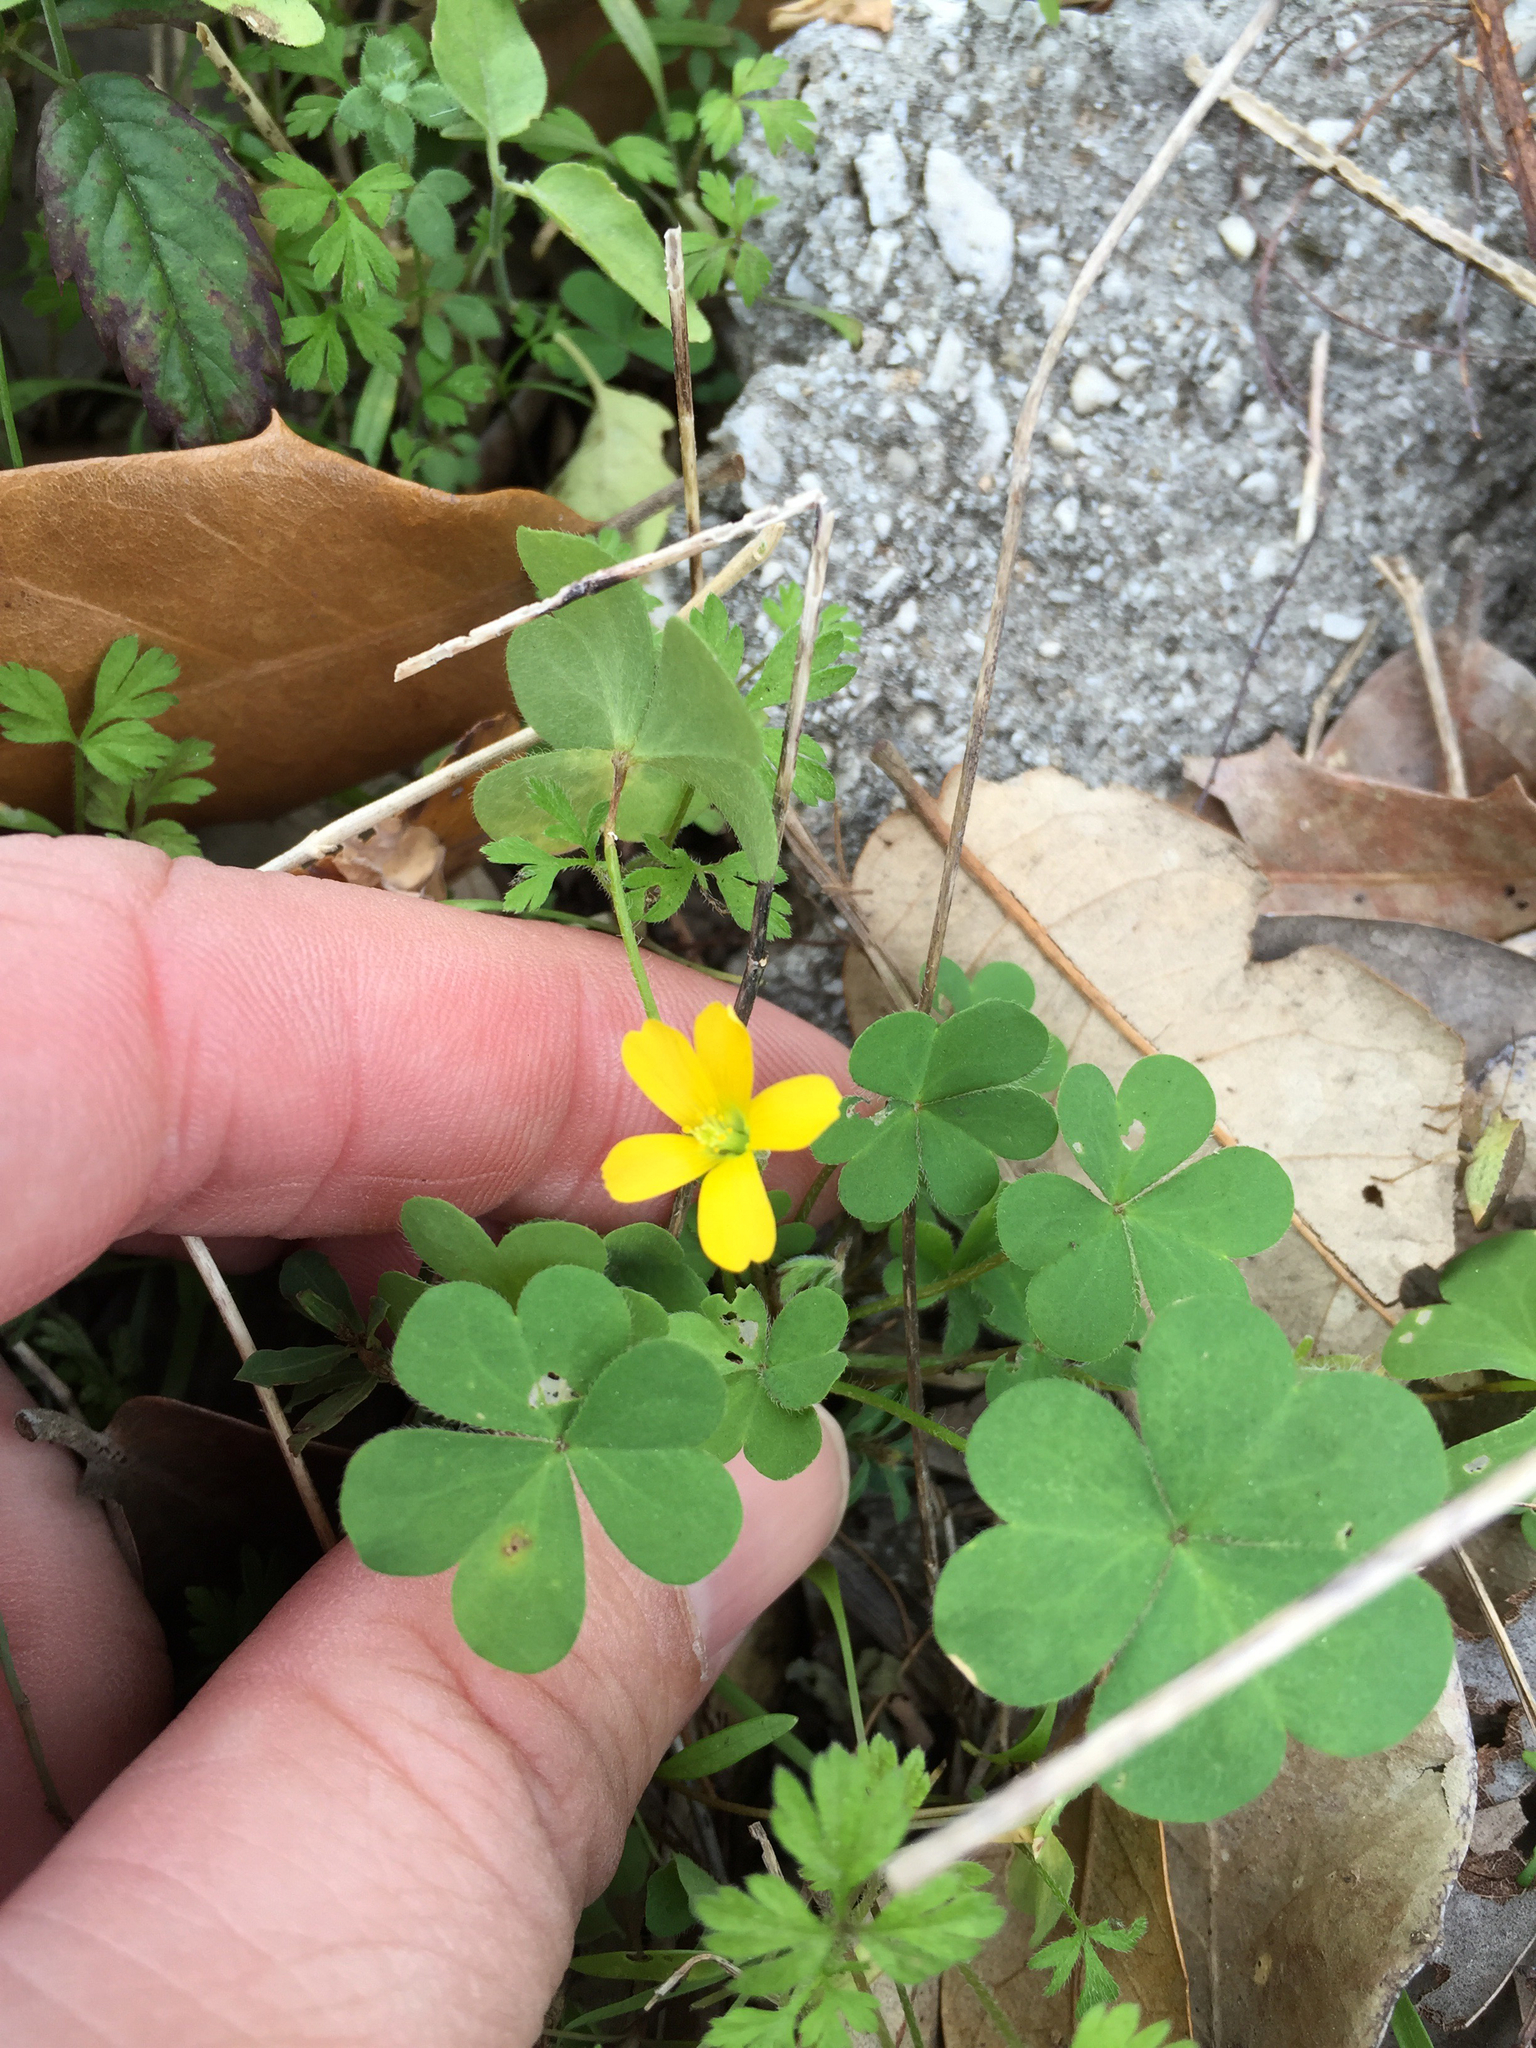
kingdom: Plantae
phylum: Tracheophyta
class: Magnoliopsida
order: Oxalidales
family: Oxalidaceae
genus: Oxalis
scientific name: Oxalis dillenii
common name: Sussex yellow-sorrel
